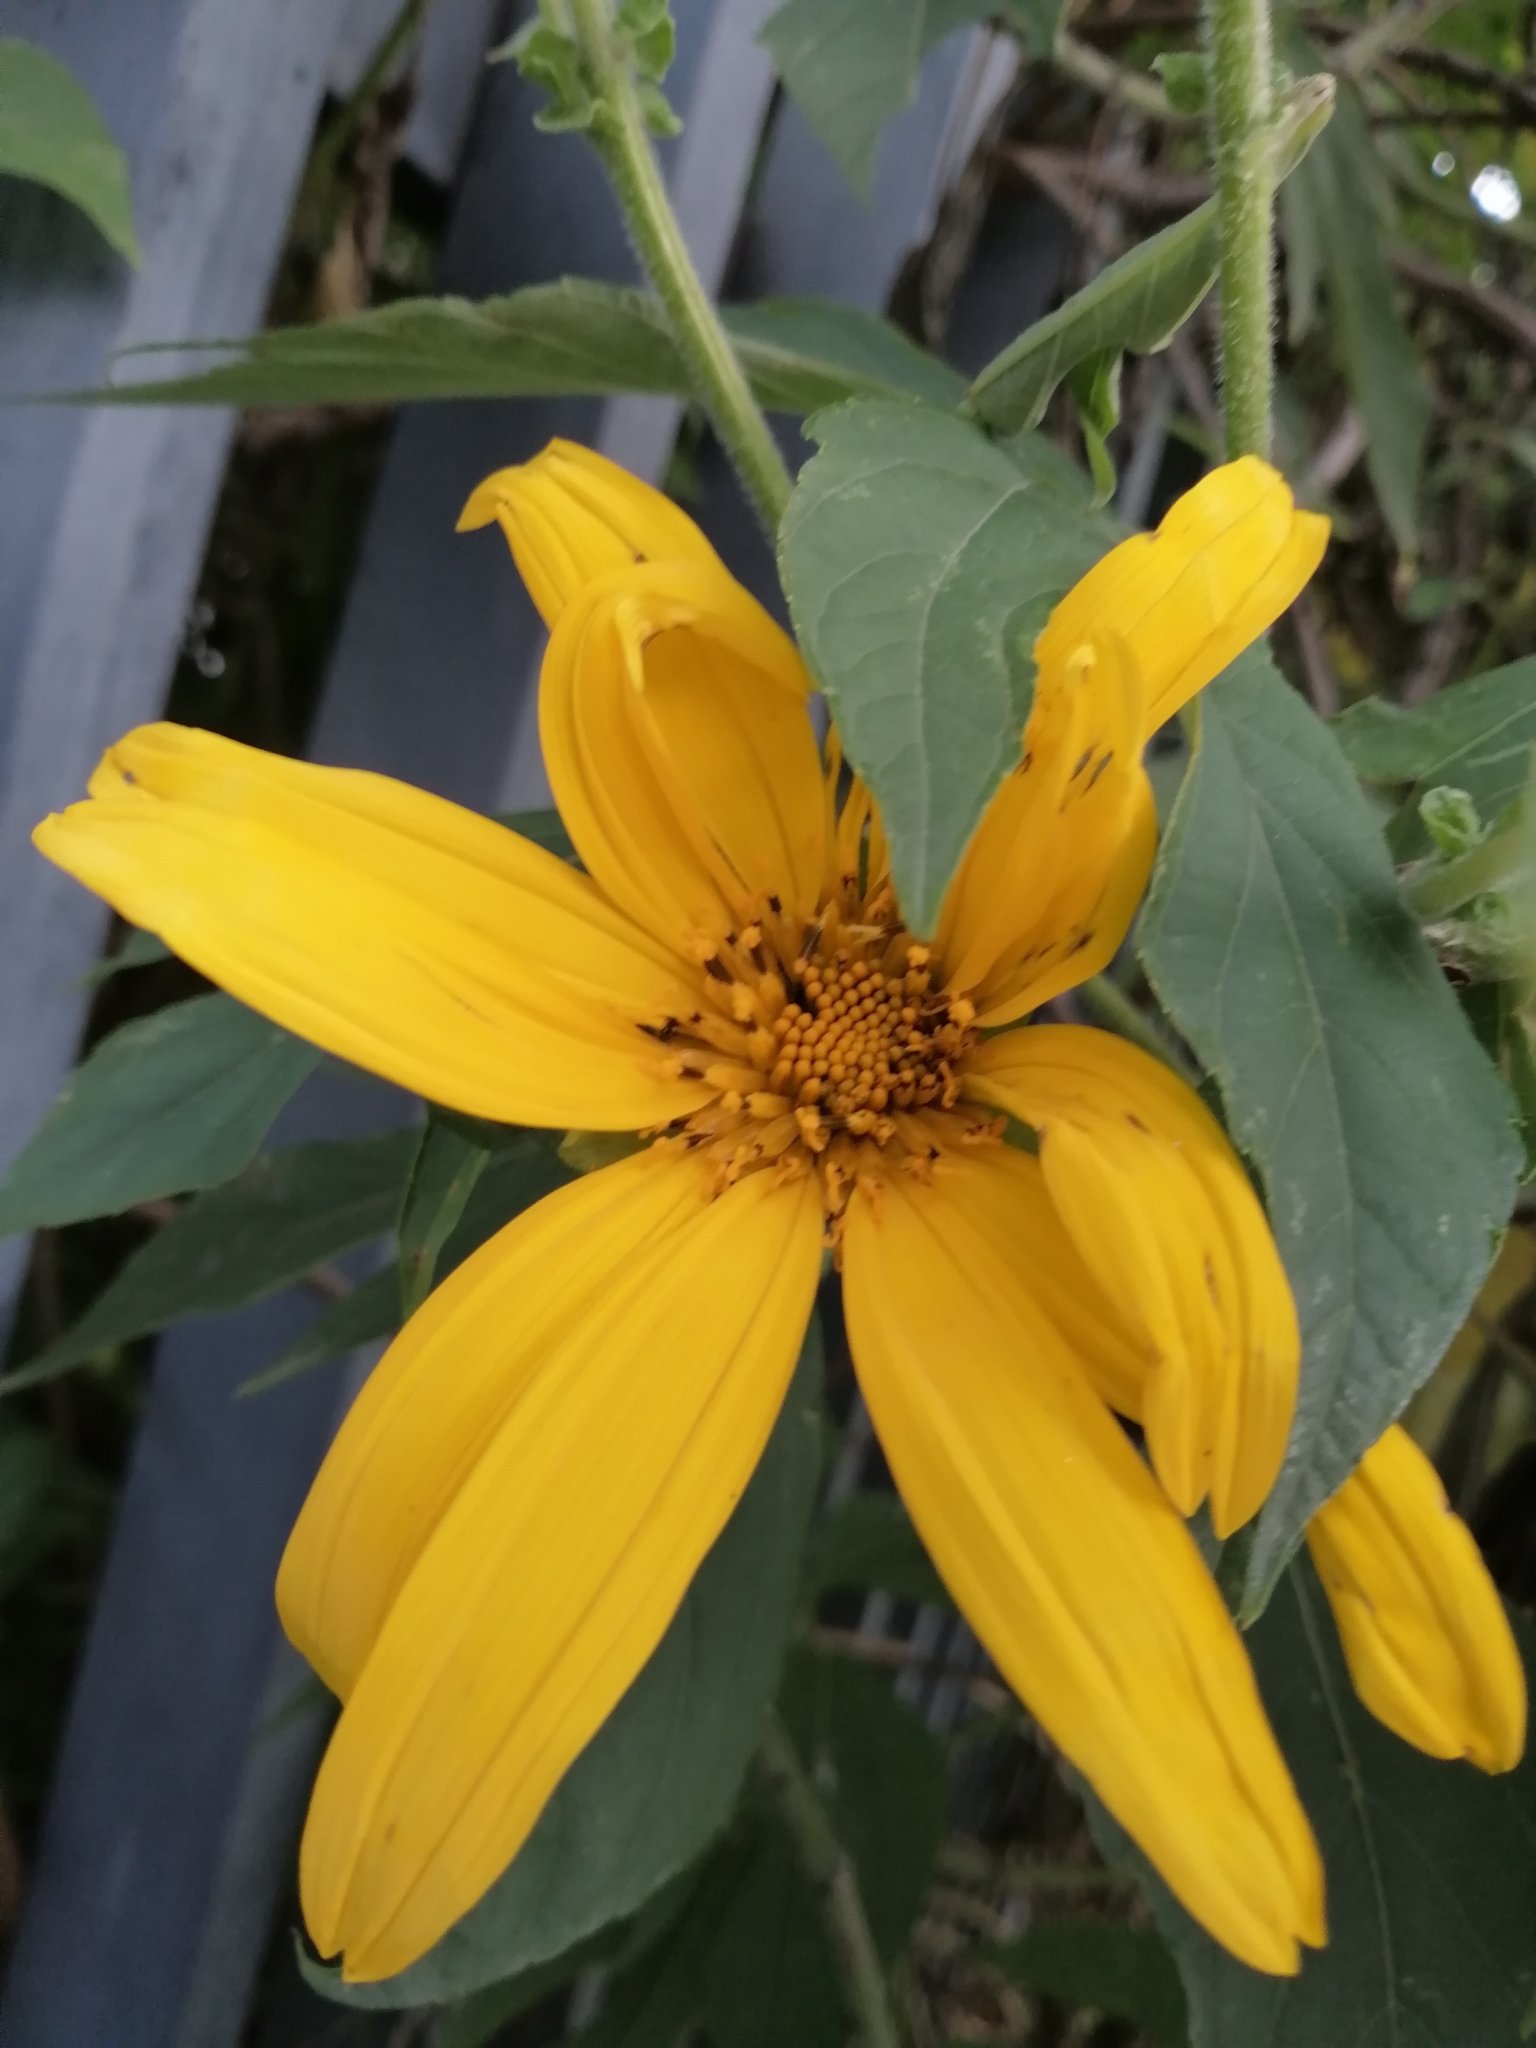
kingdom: Plantae
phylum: Tracheophyta
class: Magnoliopsida
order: Asterales
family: Asteraceae
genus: Tithonia
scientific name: Tithonia diversifolia
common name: Tree marigold
